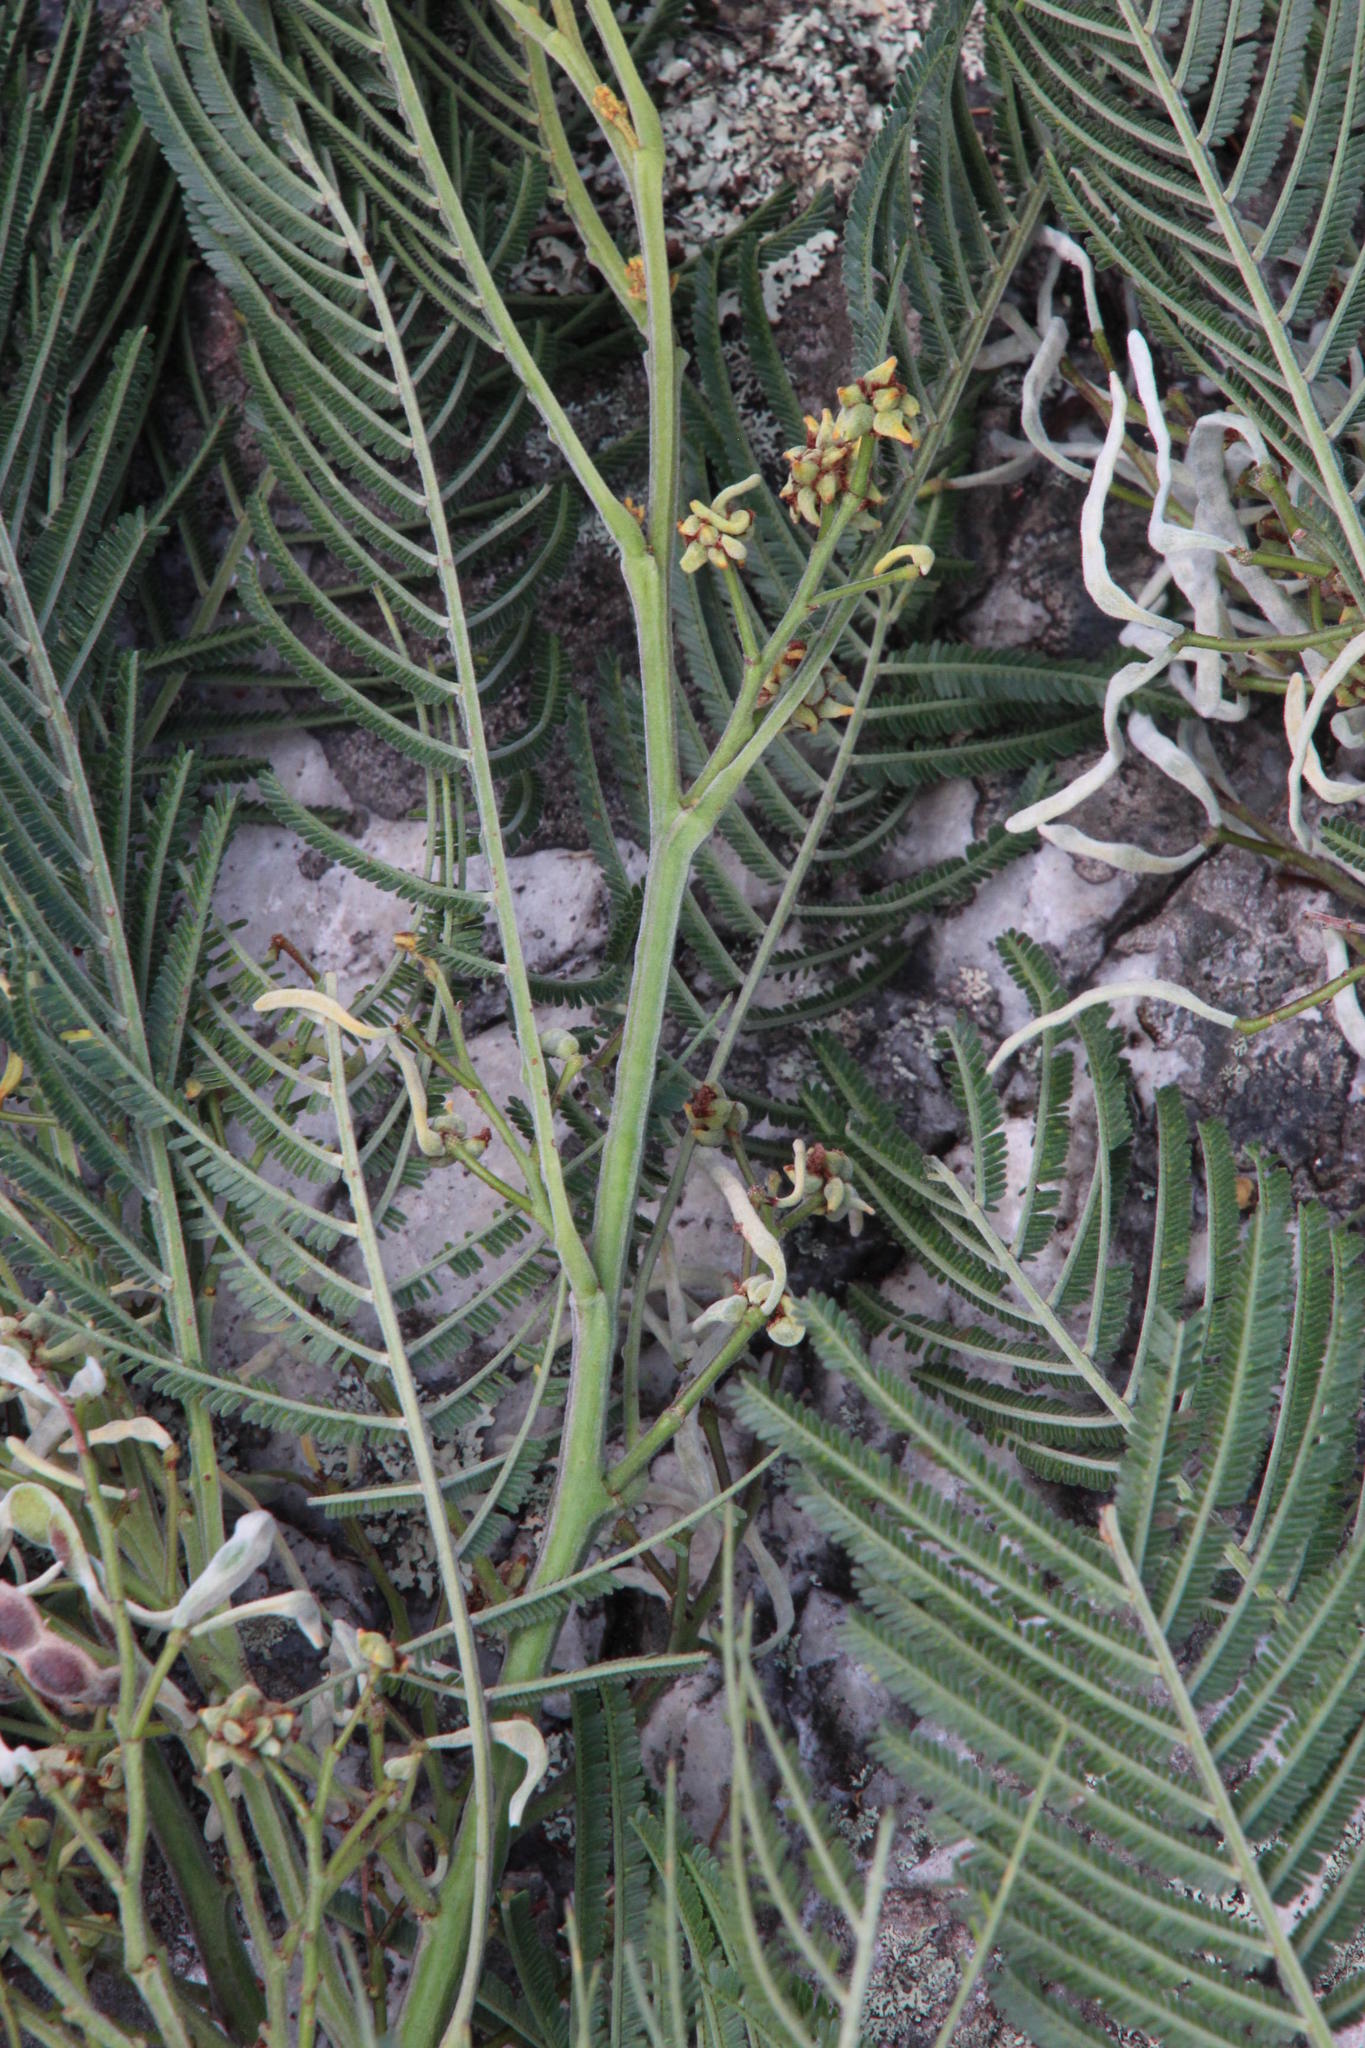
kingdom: Animalia
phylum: Arthropoda
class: Insecta
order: Diptera
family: Cecidomyiidae
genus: Dasineura
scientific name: Dasineura rubiformis
